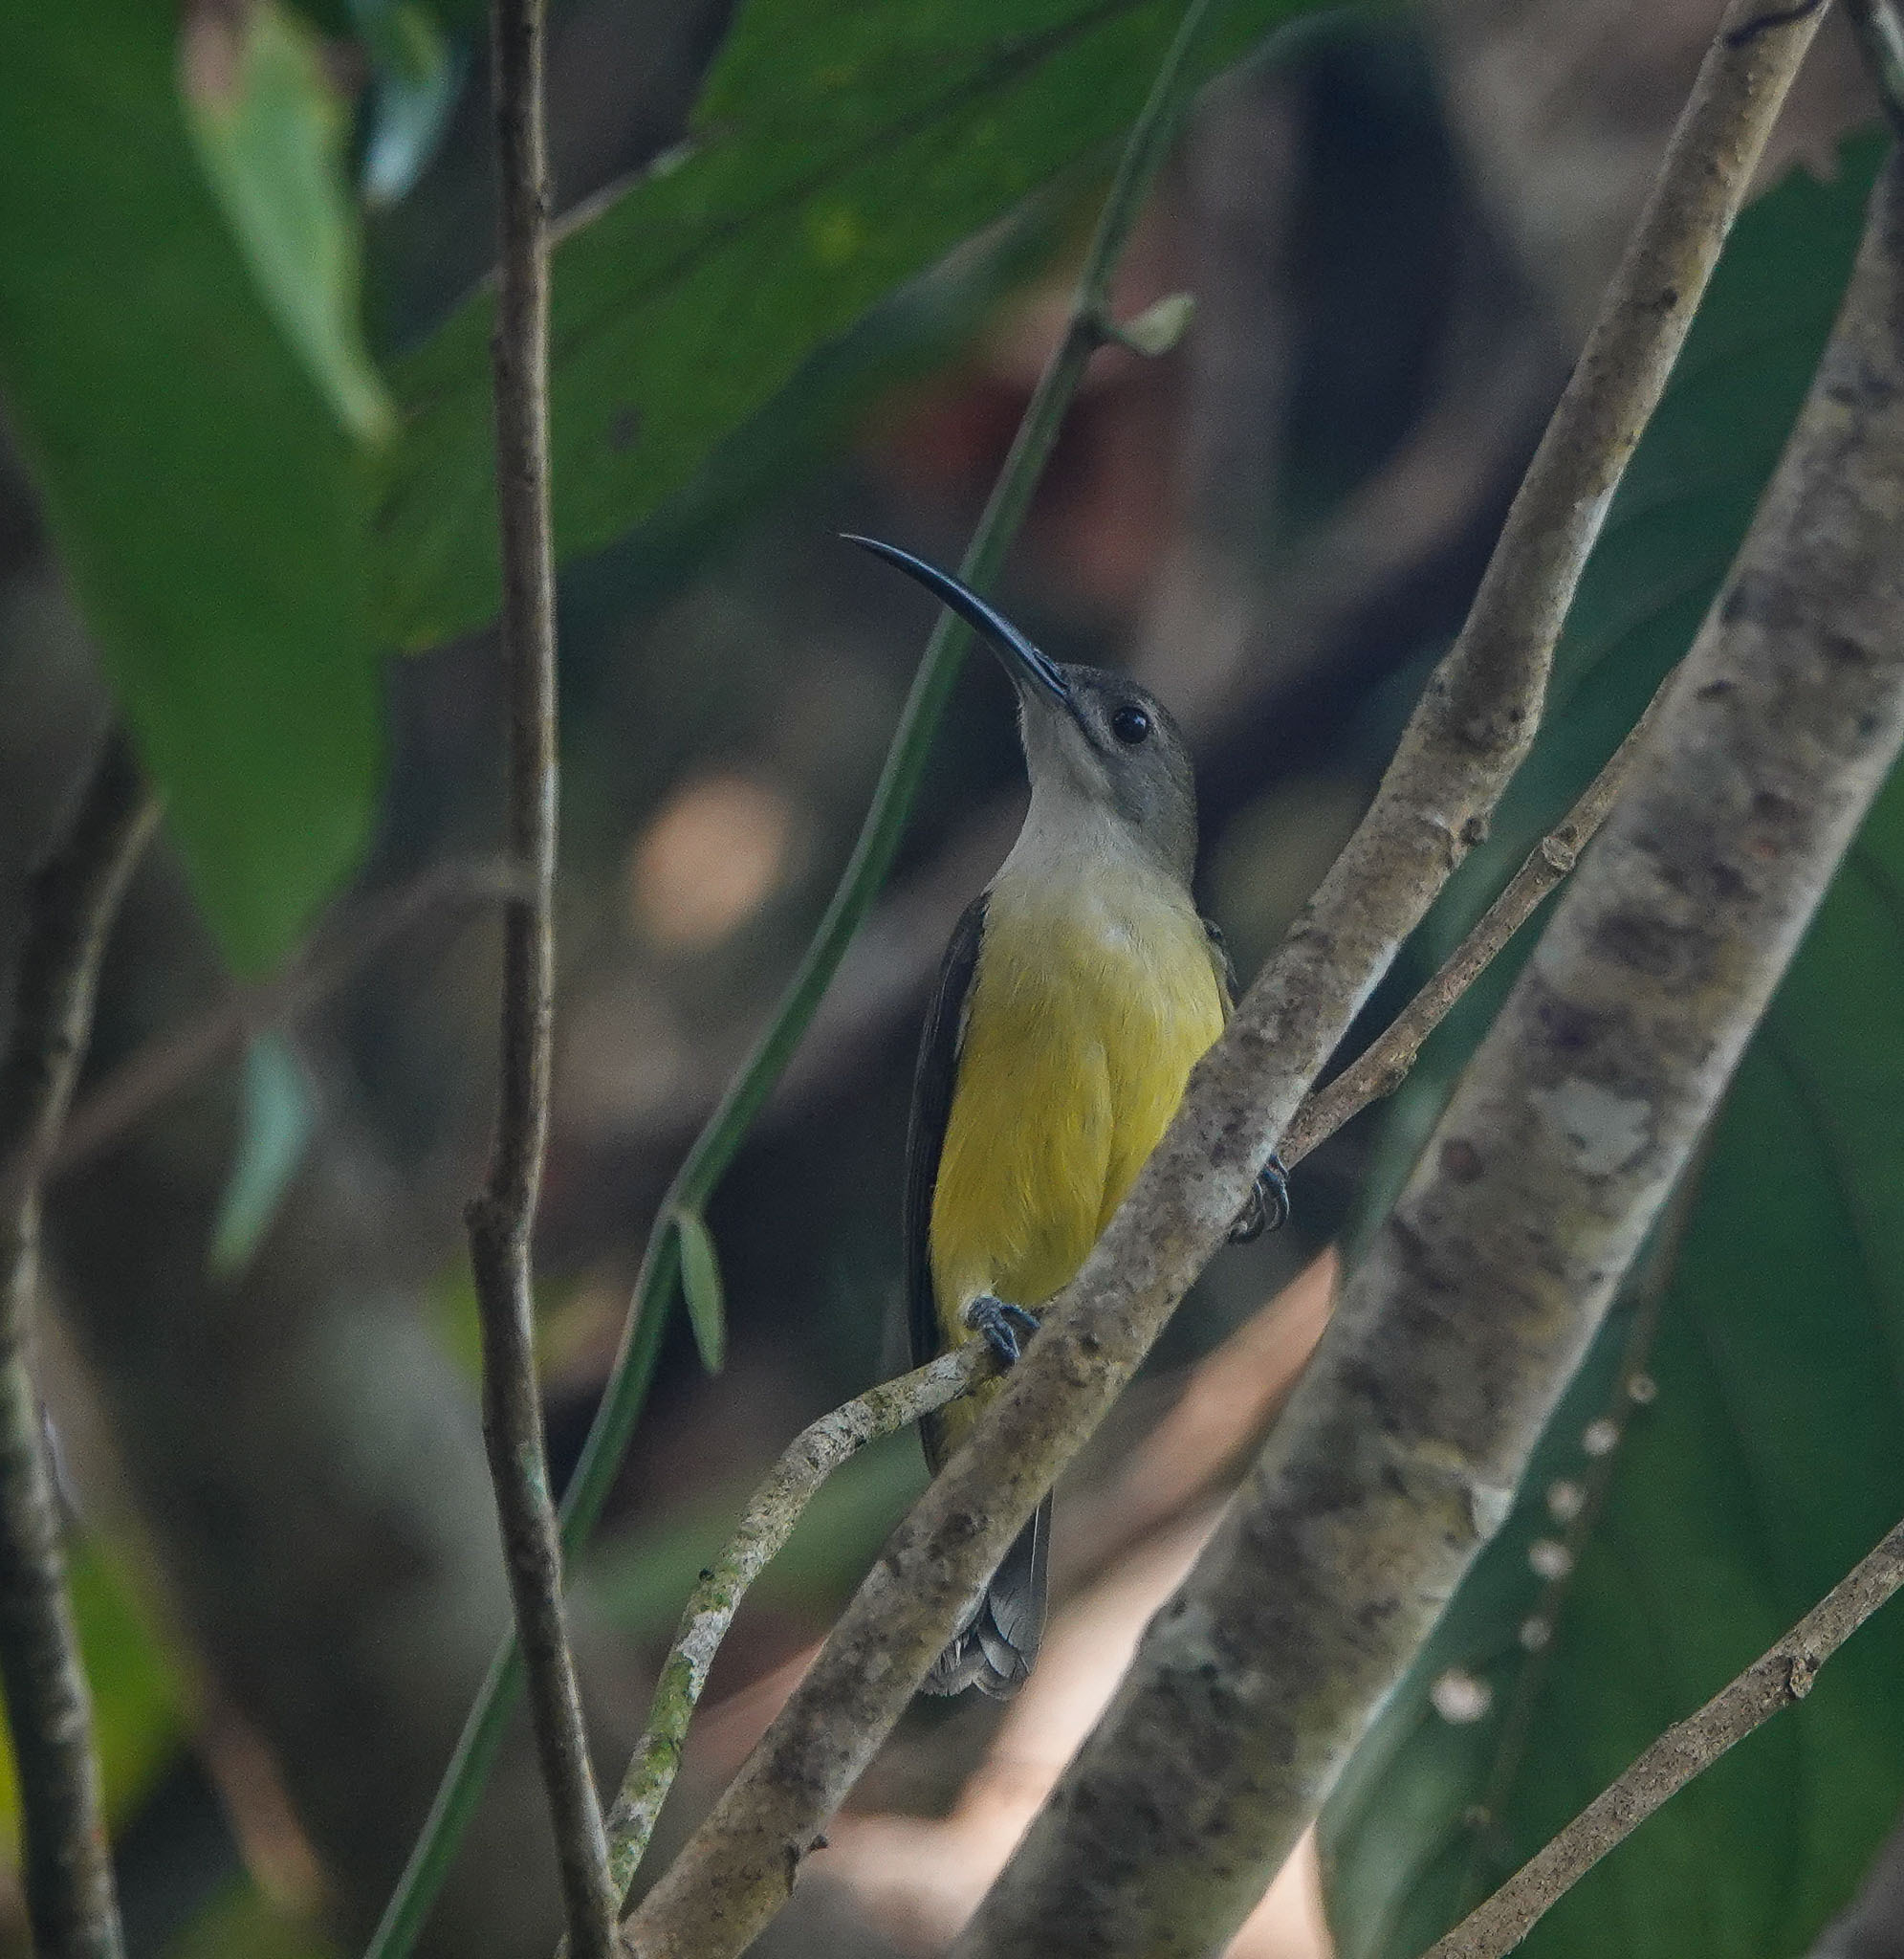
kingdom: Animalia
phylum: Chordata
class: Aves
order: Passeriformes
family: Nectariniidae
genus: Arachnothera
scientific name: Arachnothera longirostra
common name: Little spiderhunter
